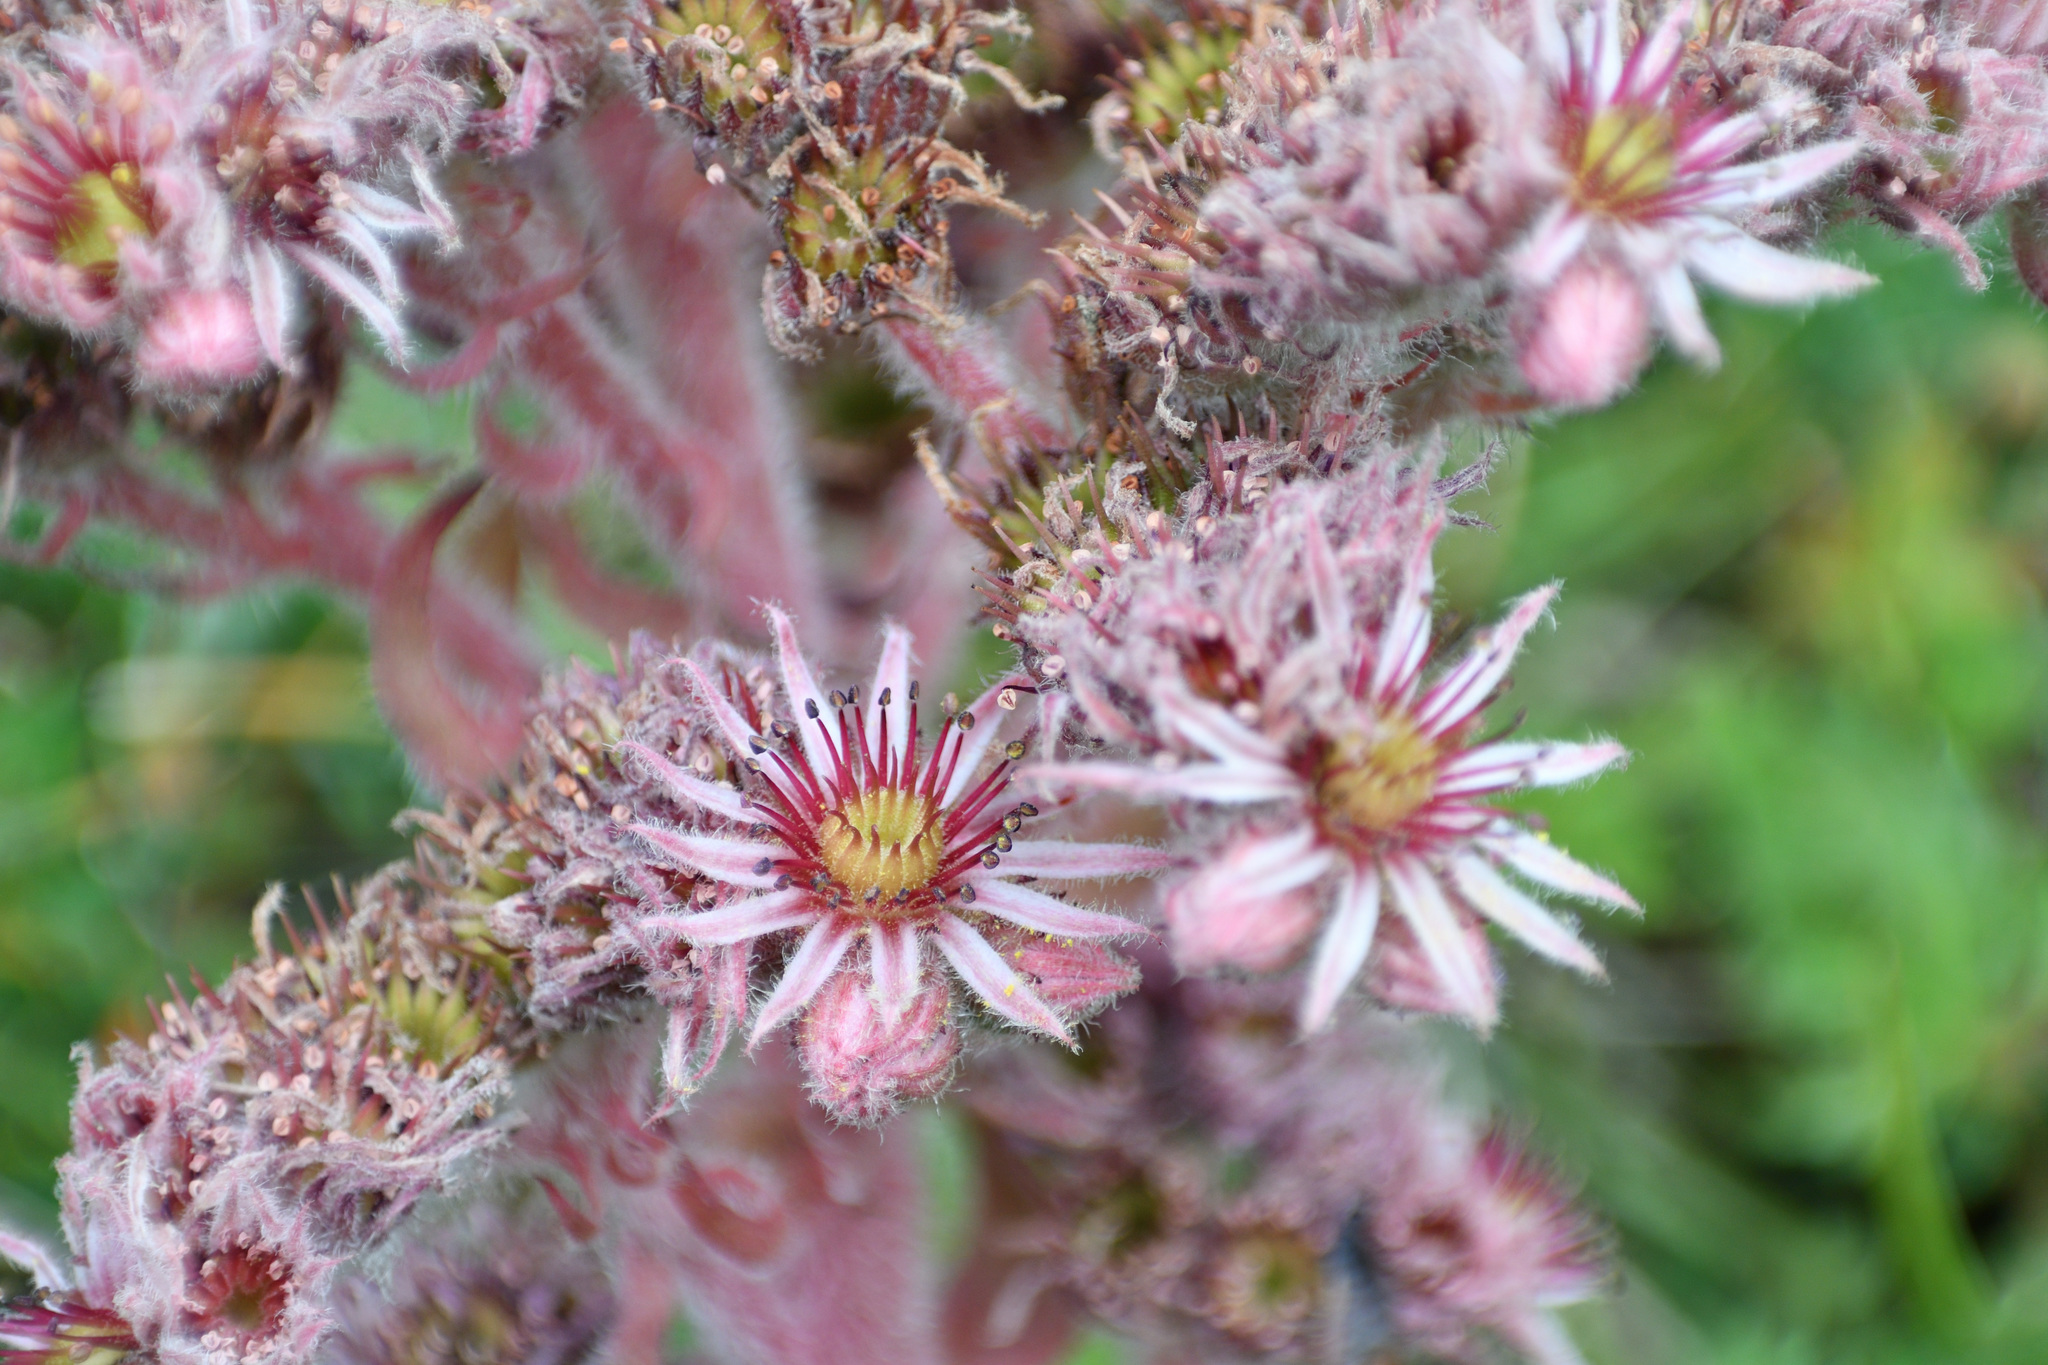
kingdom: Plantae
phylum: Tracheophyta
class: Magnoliopsida
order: Saxifragales
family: Crassulaceae
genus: Sempervivum
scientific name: Sempervivum tectorum
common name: House-leek
